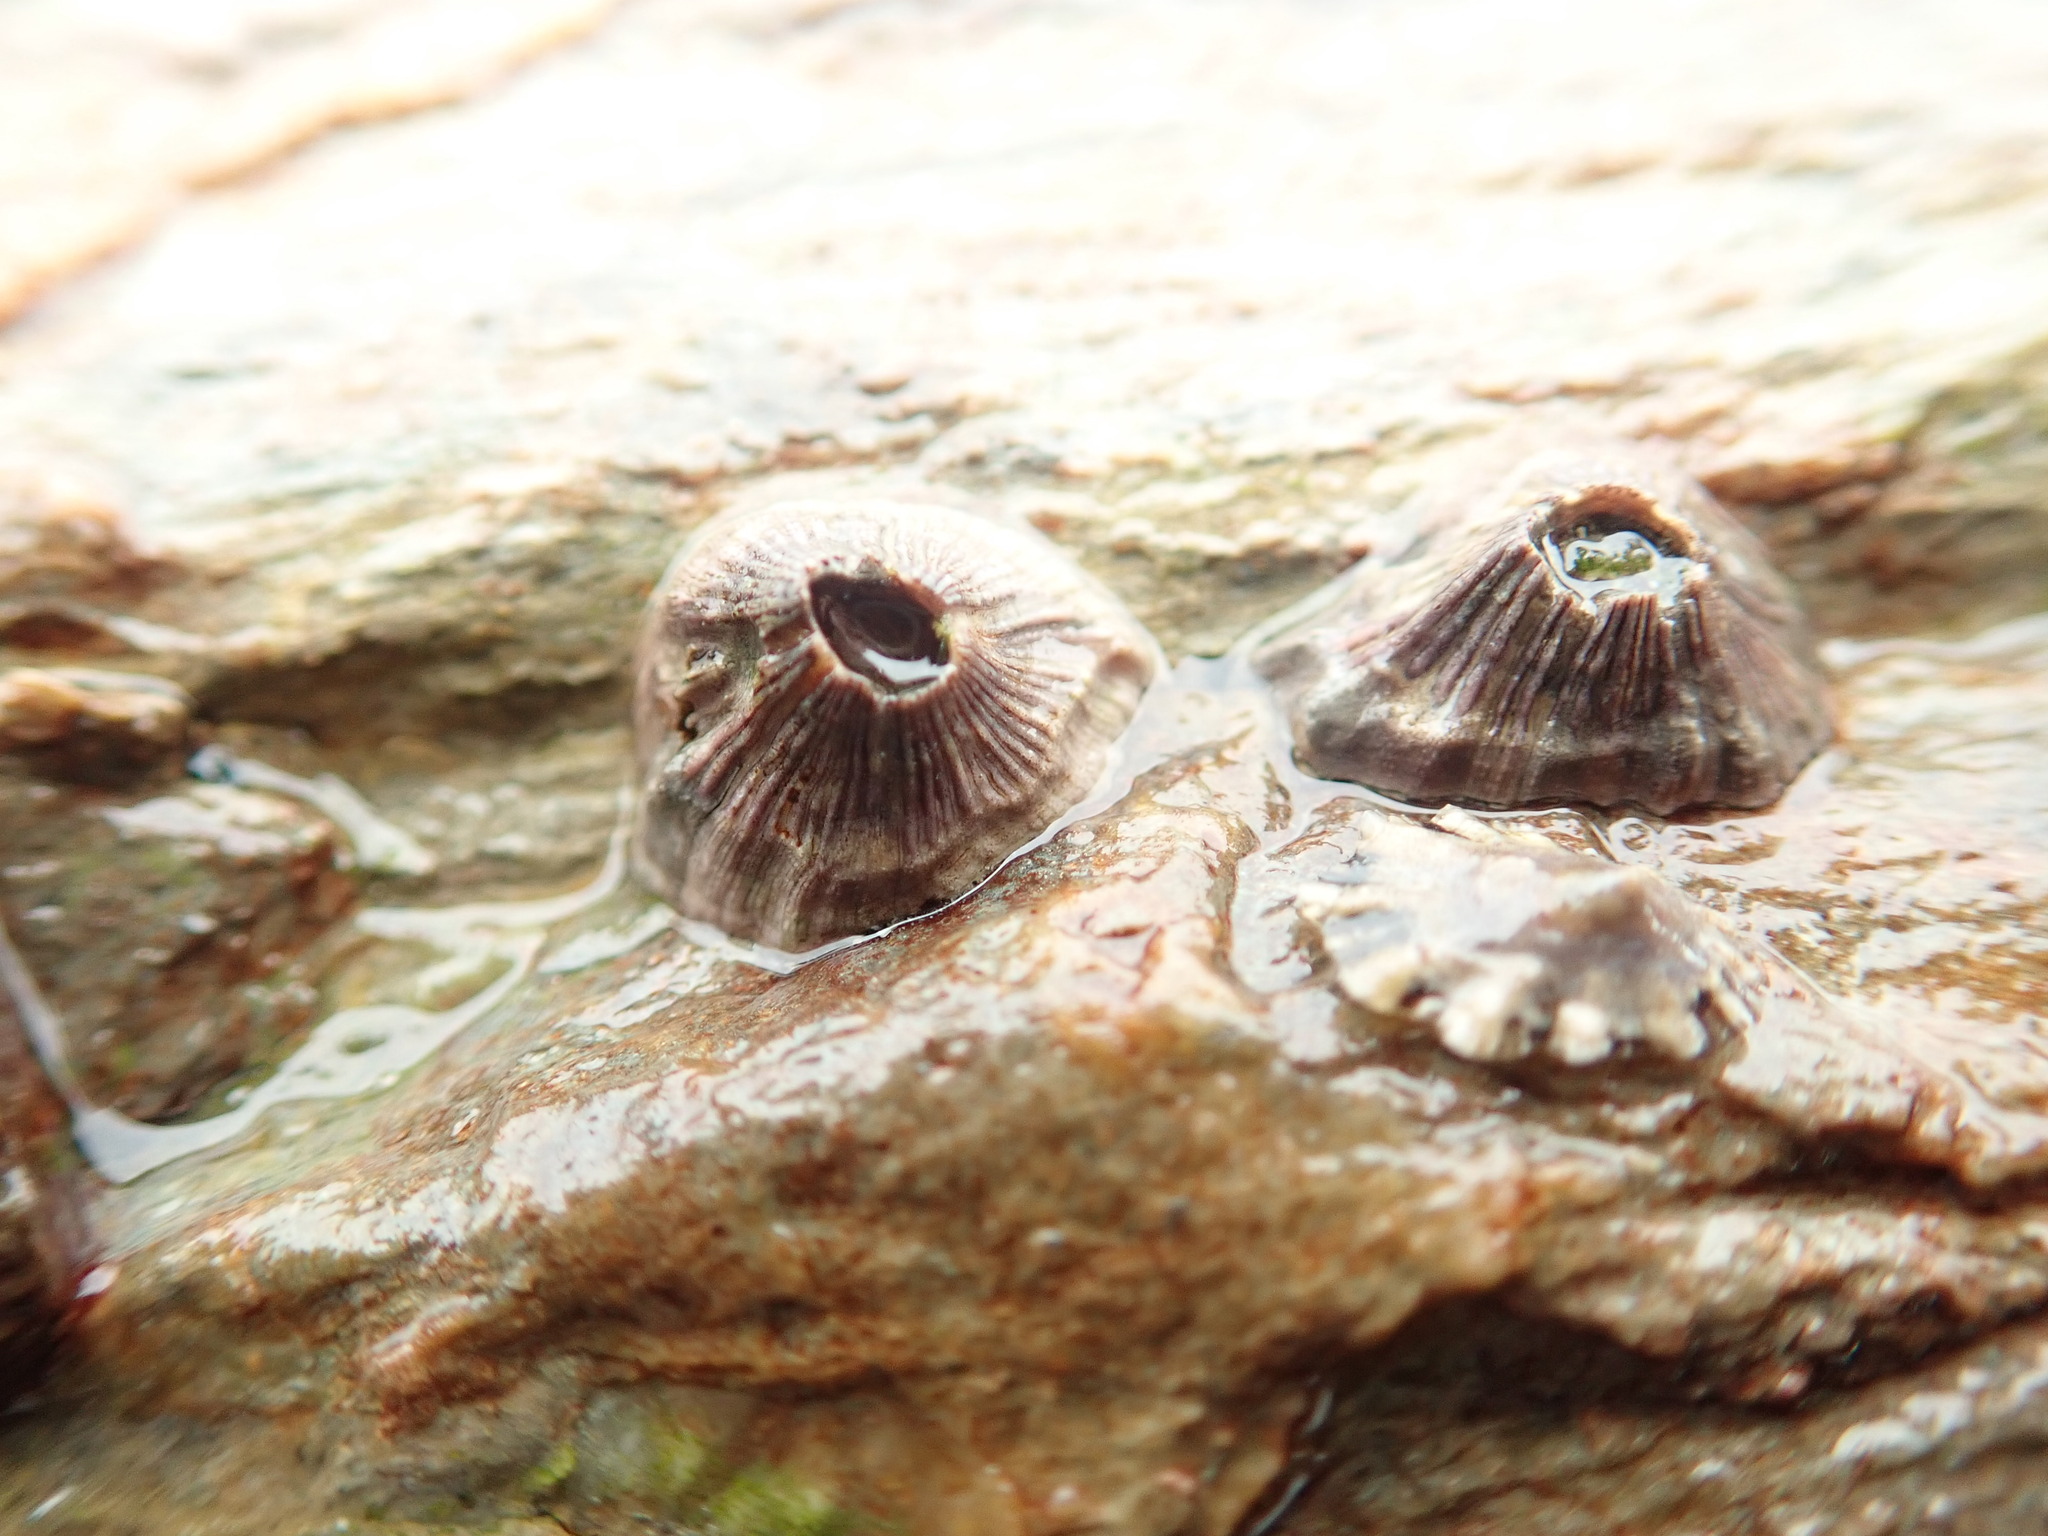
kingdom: Animalia
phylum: Arthropoda
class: Maxillopoda
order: Sessilia
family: Balanidae
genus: Perforatus
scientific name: Perforatus perforatus
